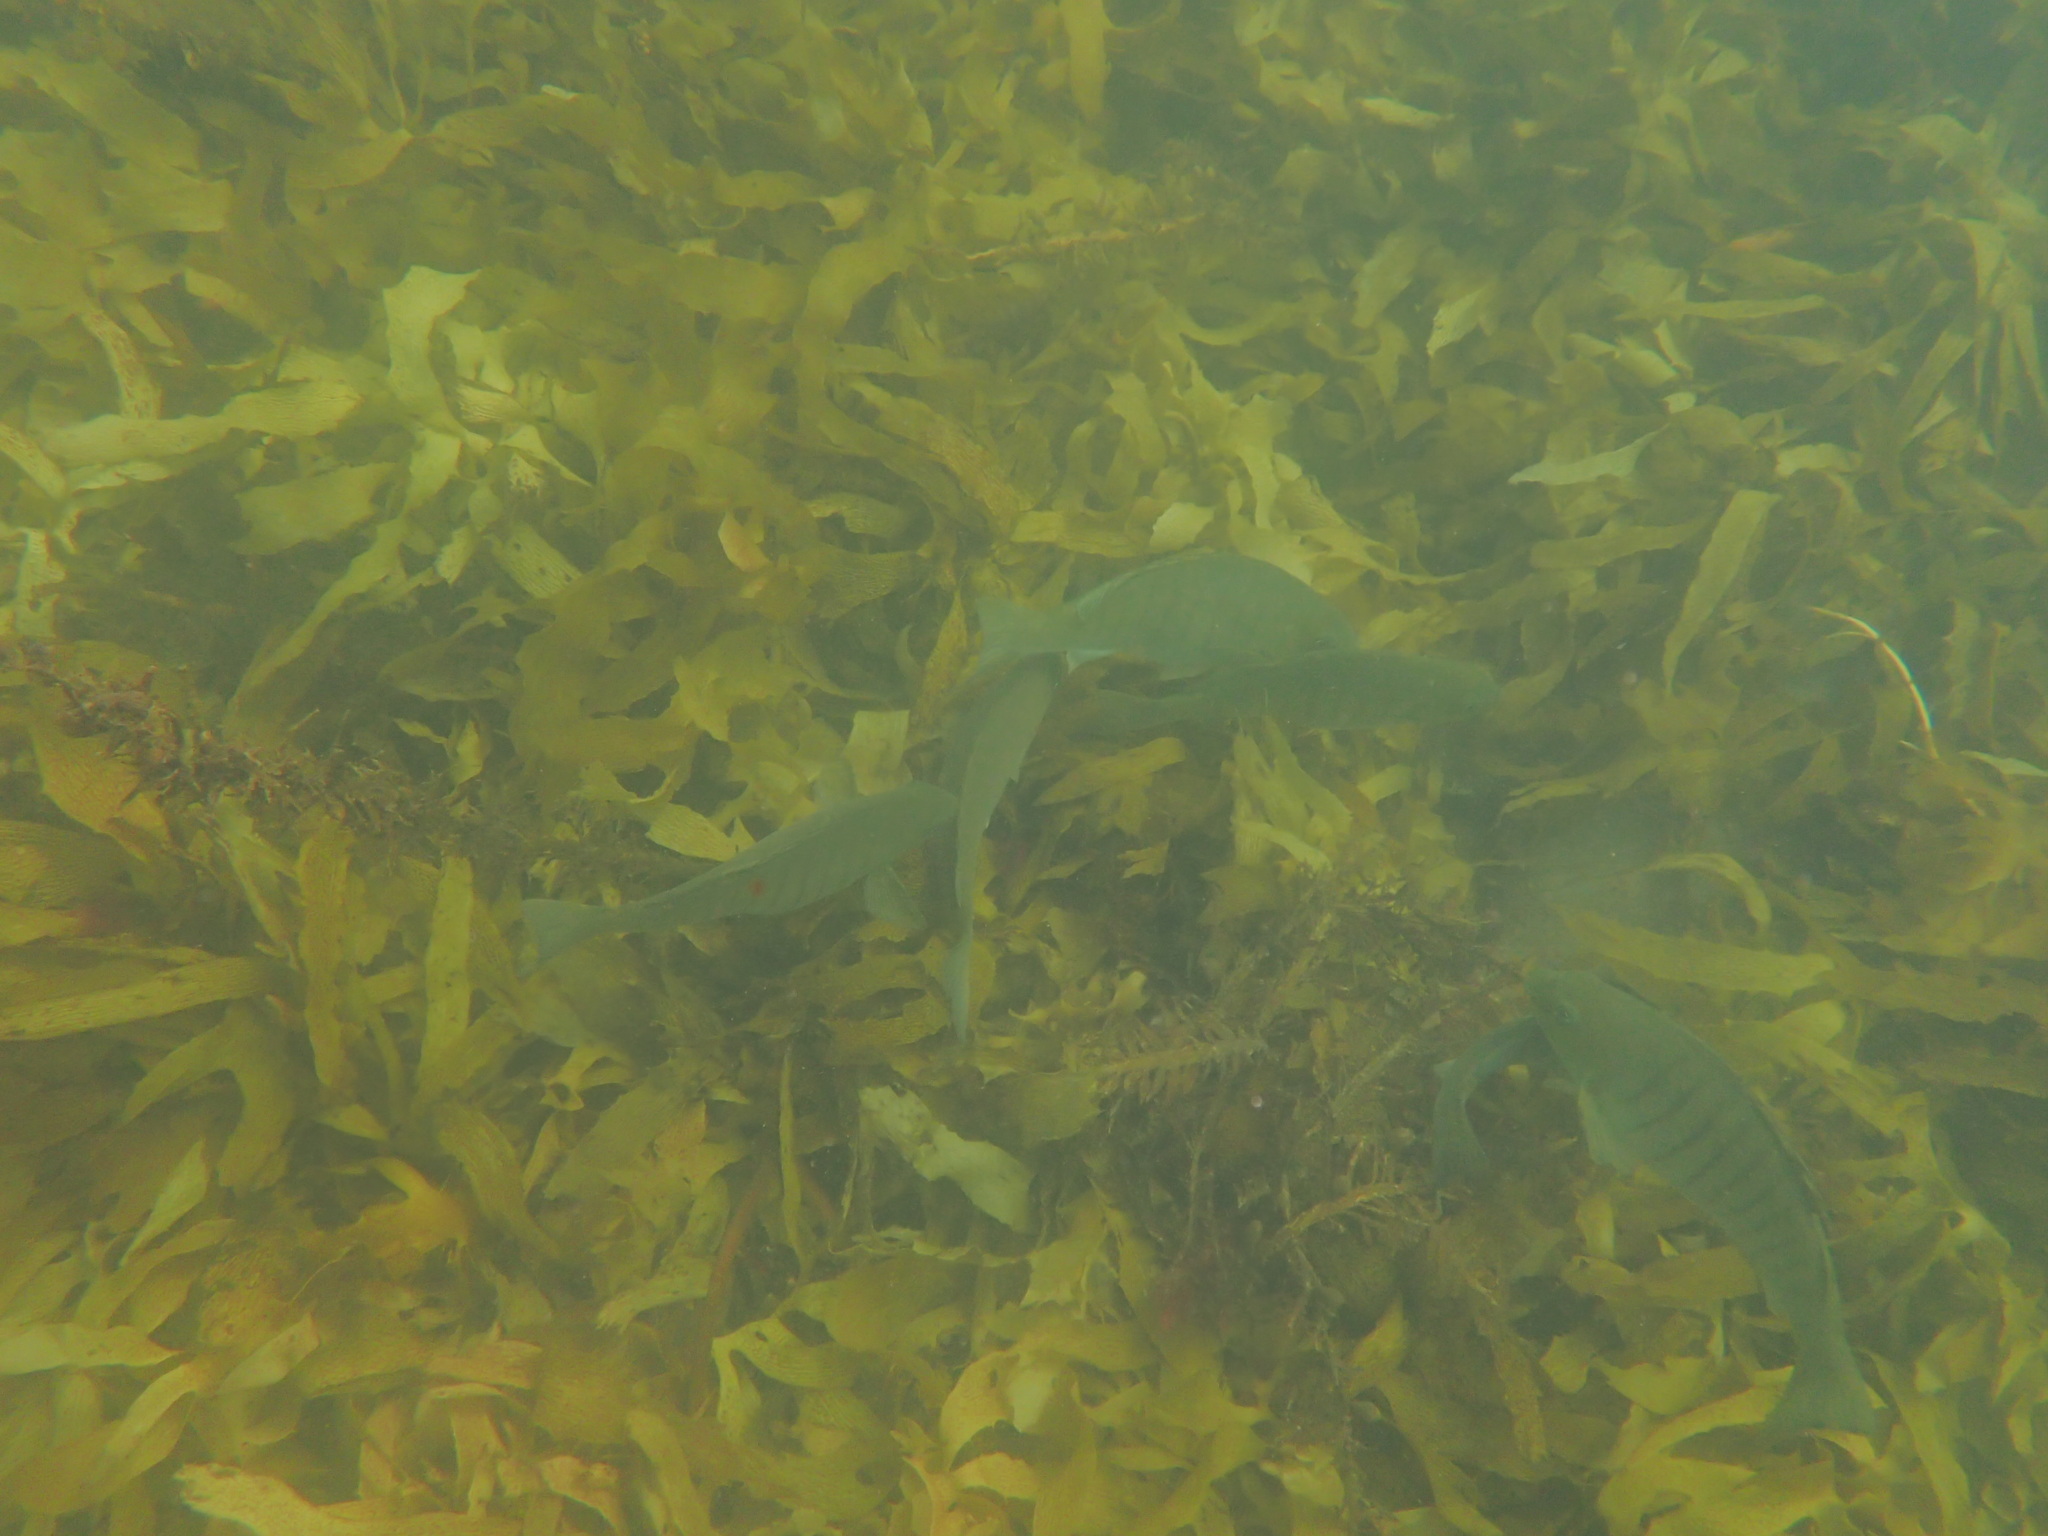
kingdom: Animalia
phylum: Chordata
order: Perciformes
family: Kyphosidae
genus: Girella
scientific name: Girella tricuspidata
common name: Parore
